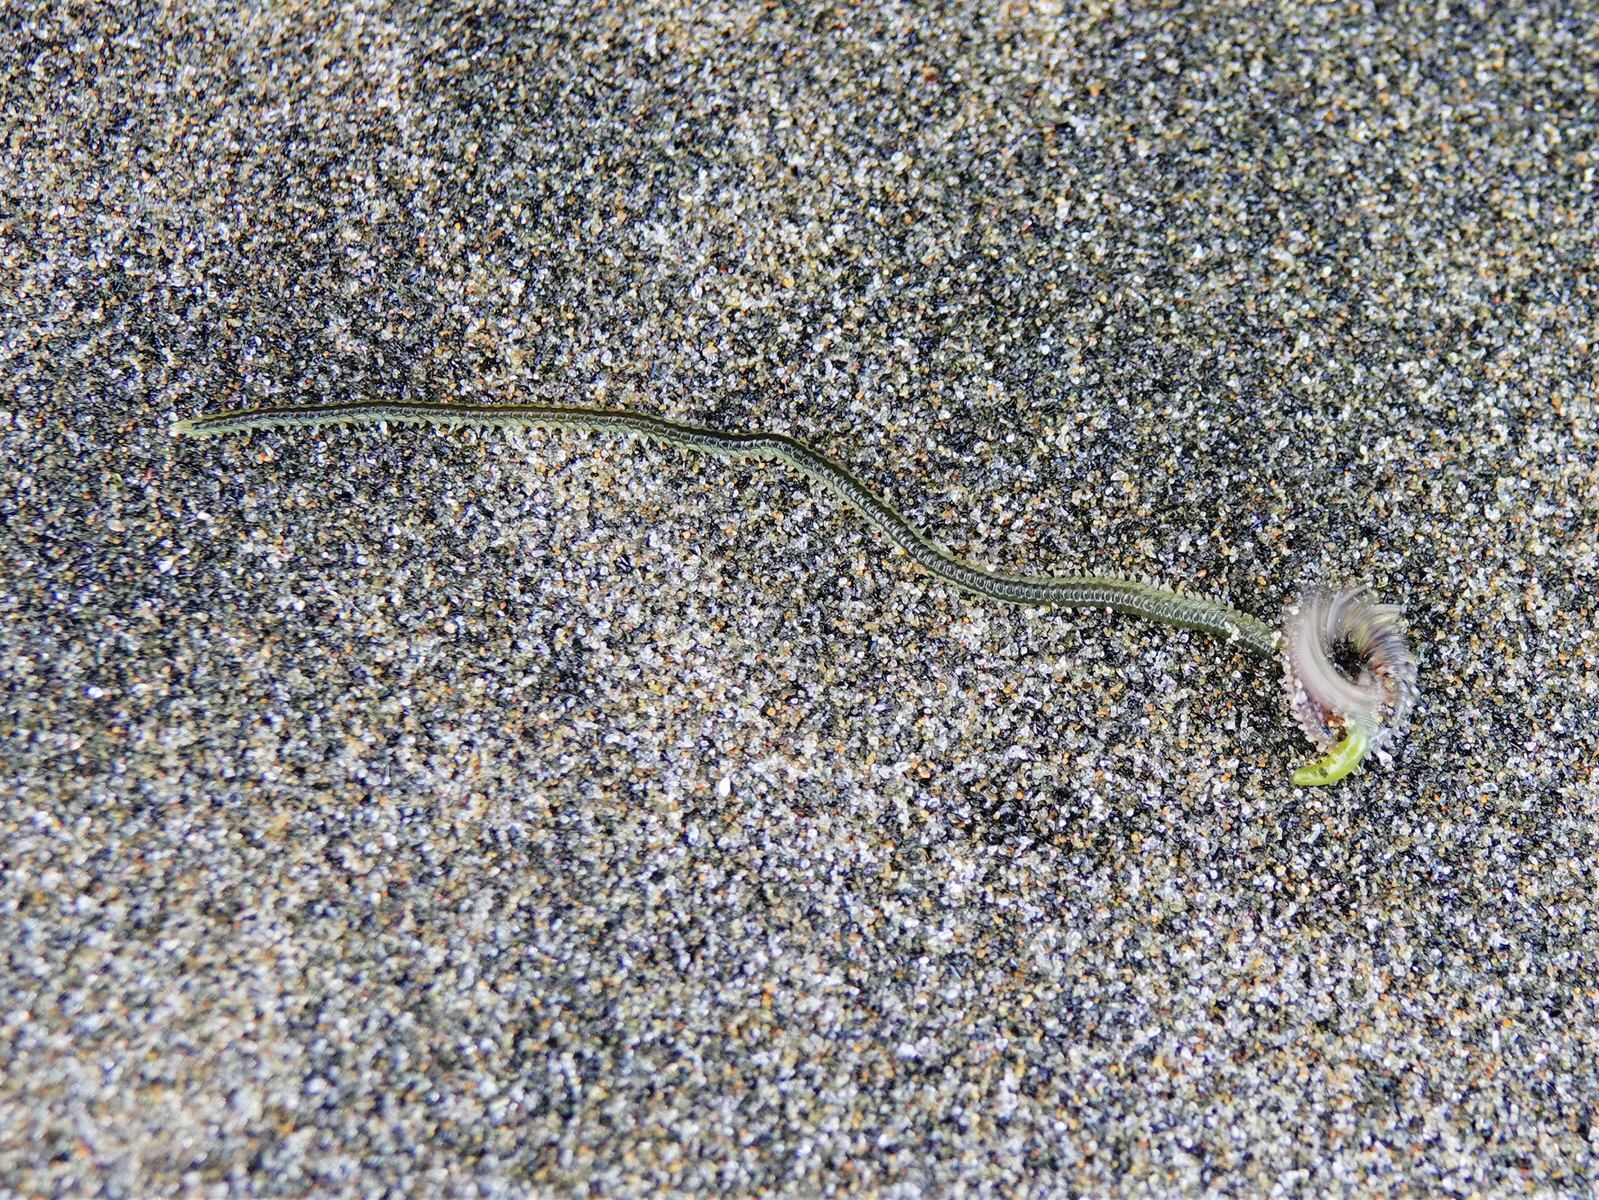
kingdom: Animalia
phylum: Annelida
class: Polychaeta
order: Phyllodocida
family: Phyllodocidae
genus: Eulalia
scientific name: Eulalia microphylla
